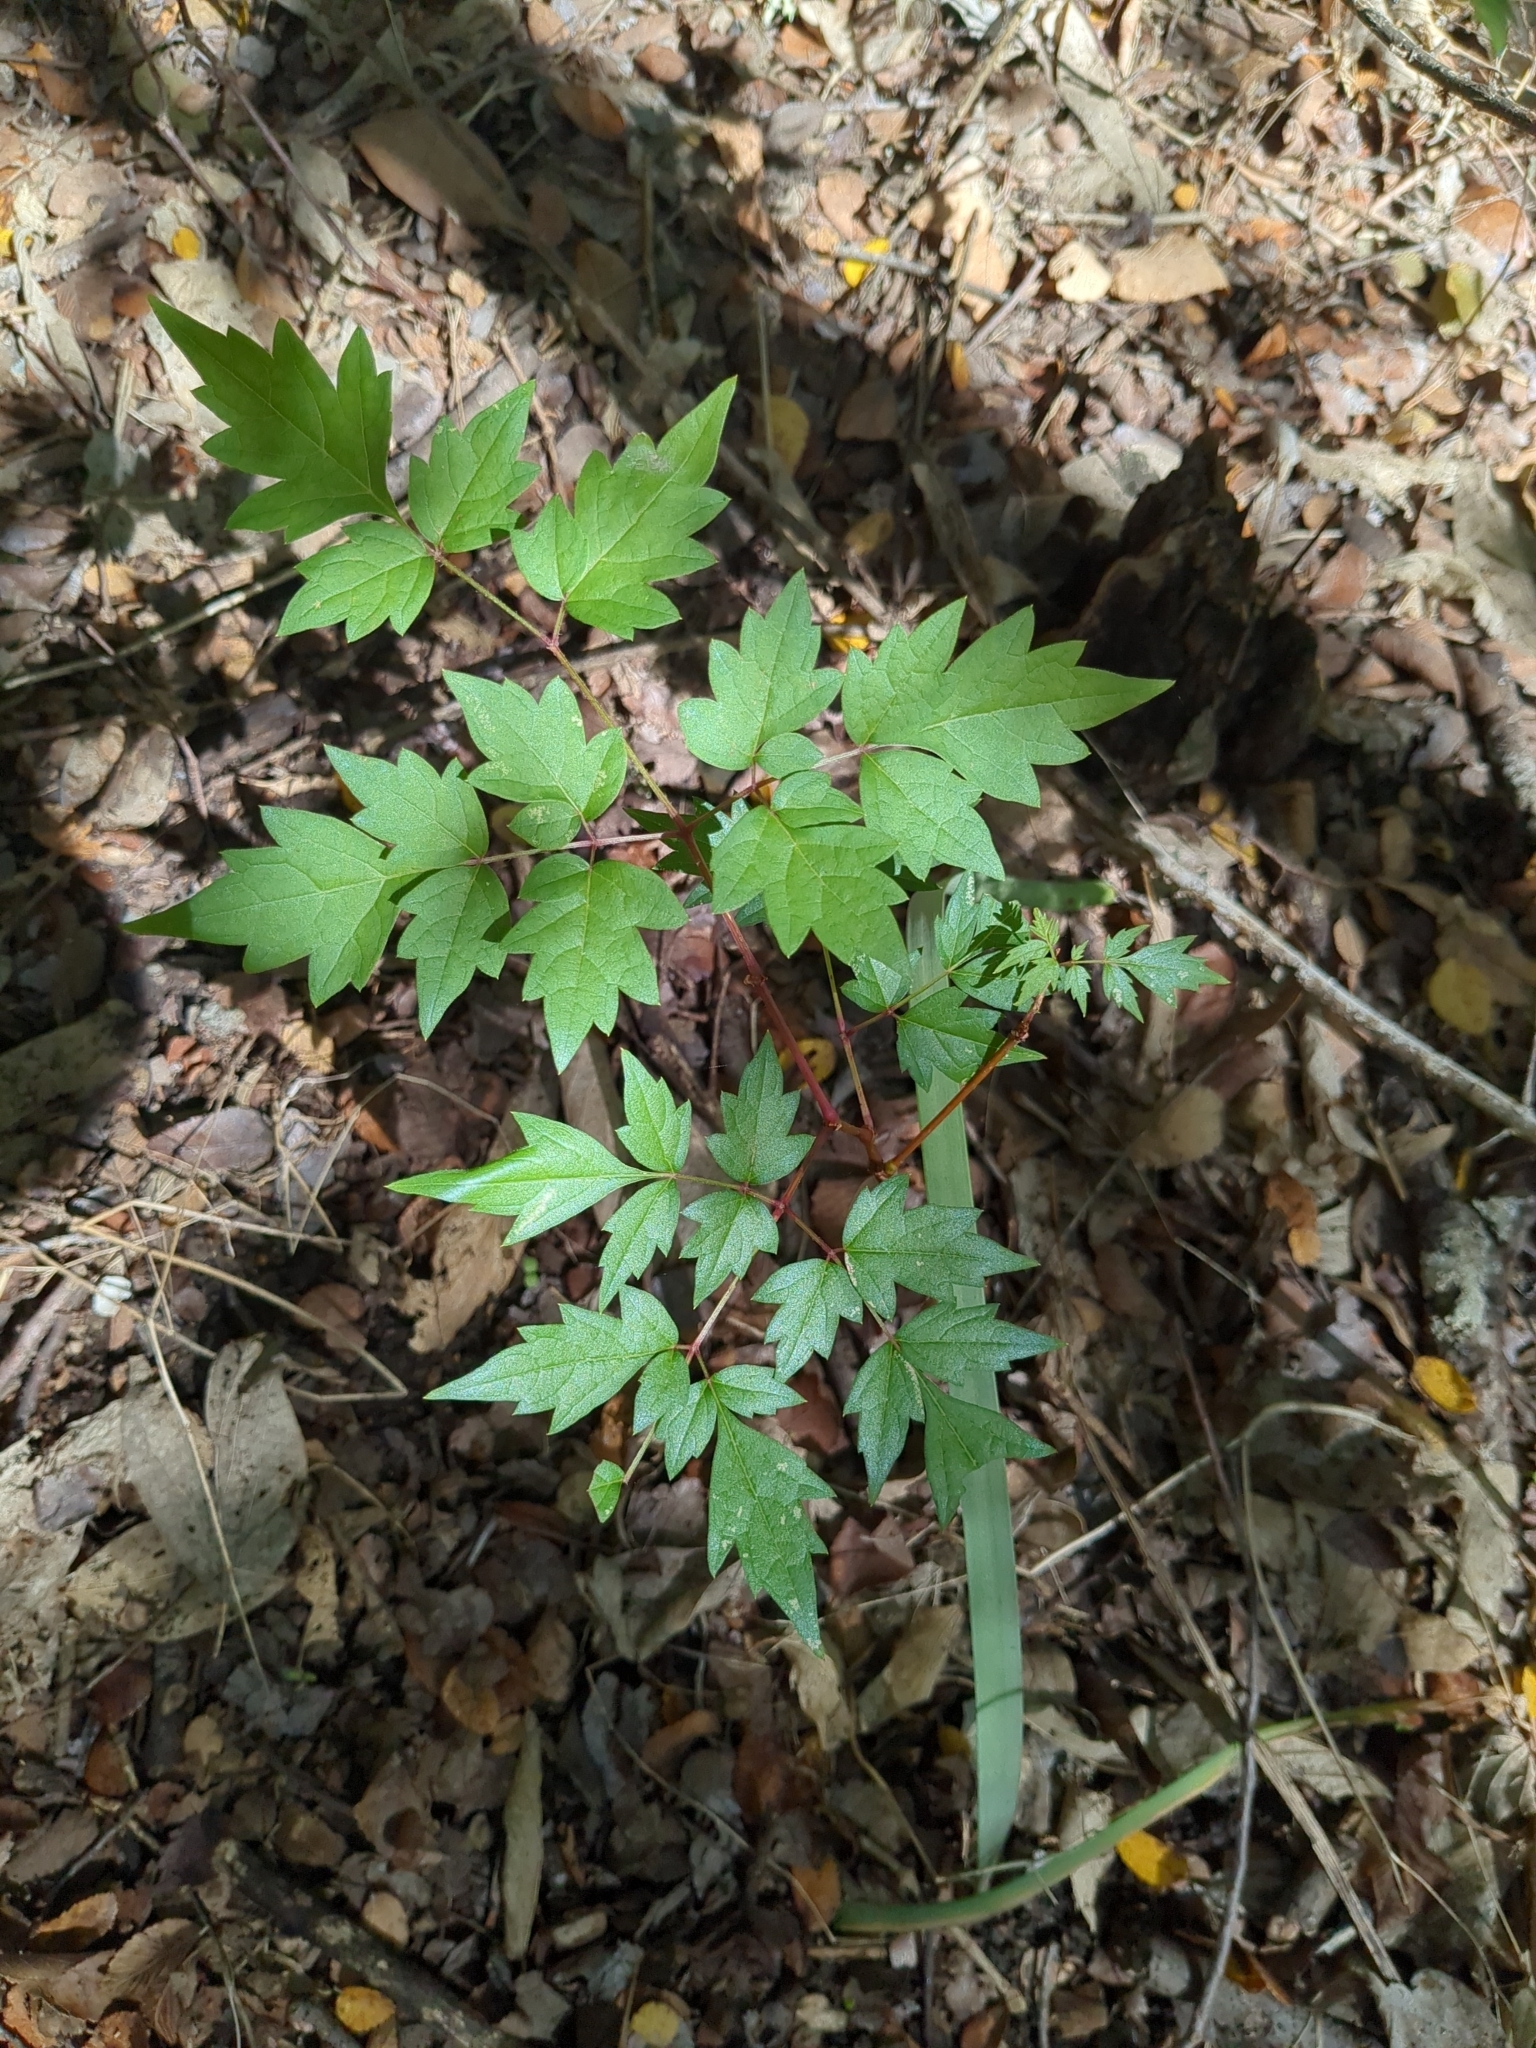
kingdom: Plantae
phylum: Tracheophyta
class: Magnoliopsida
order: Vitales
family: Vitaceae
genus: Nekemias
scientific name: Nekemias arborea
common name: Peppervine
